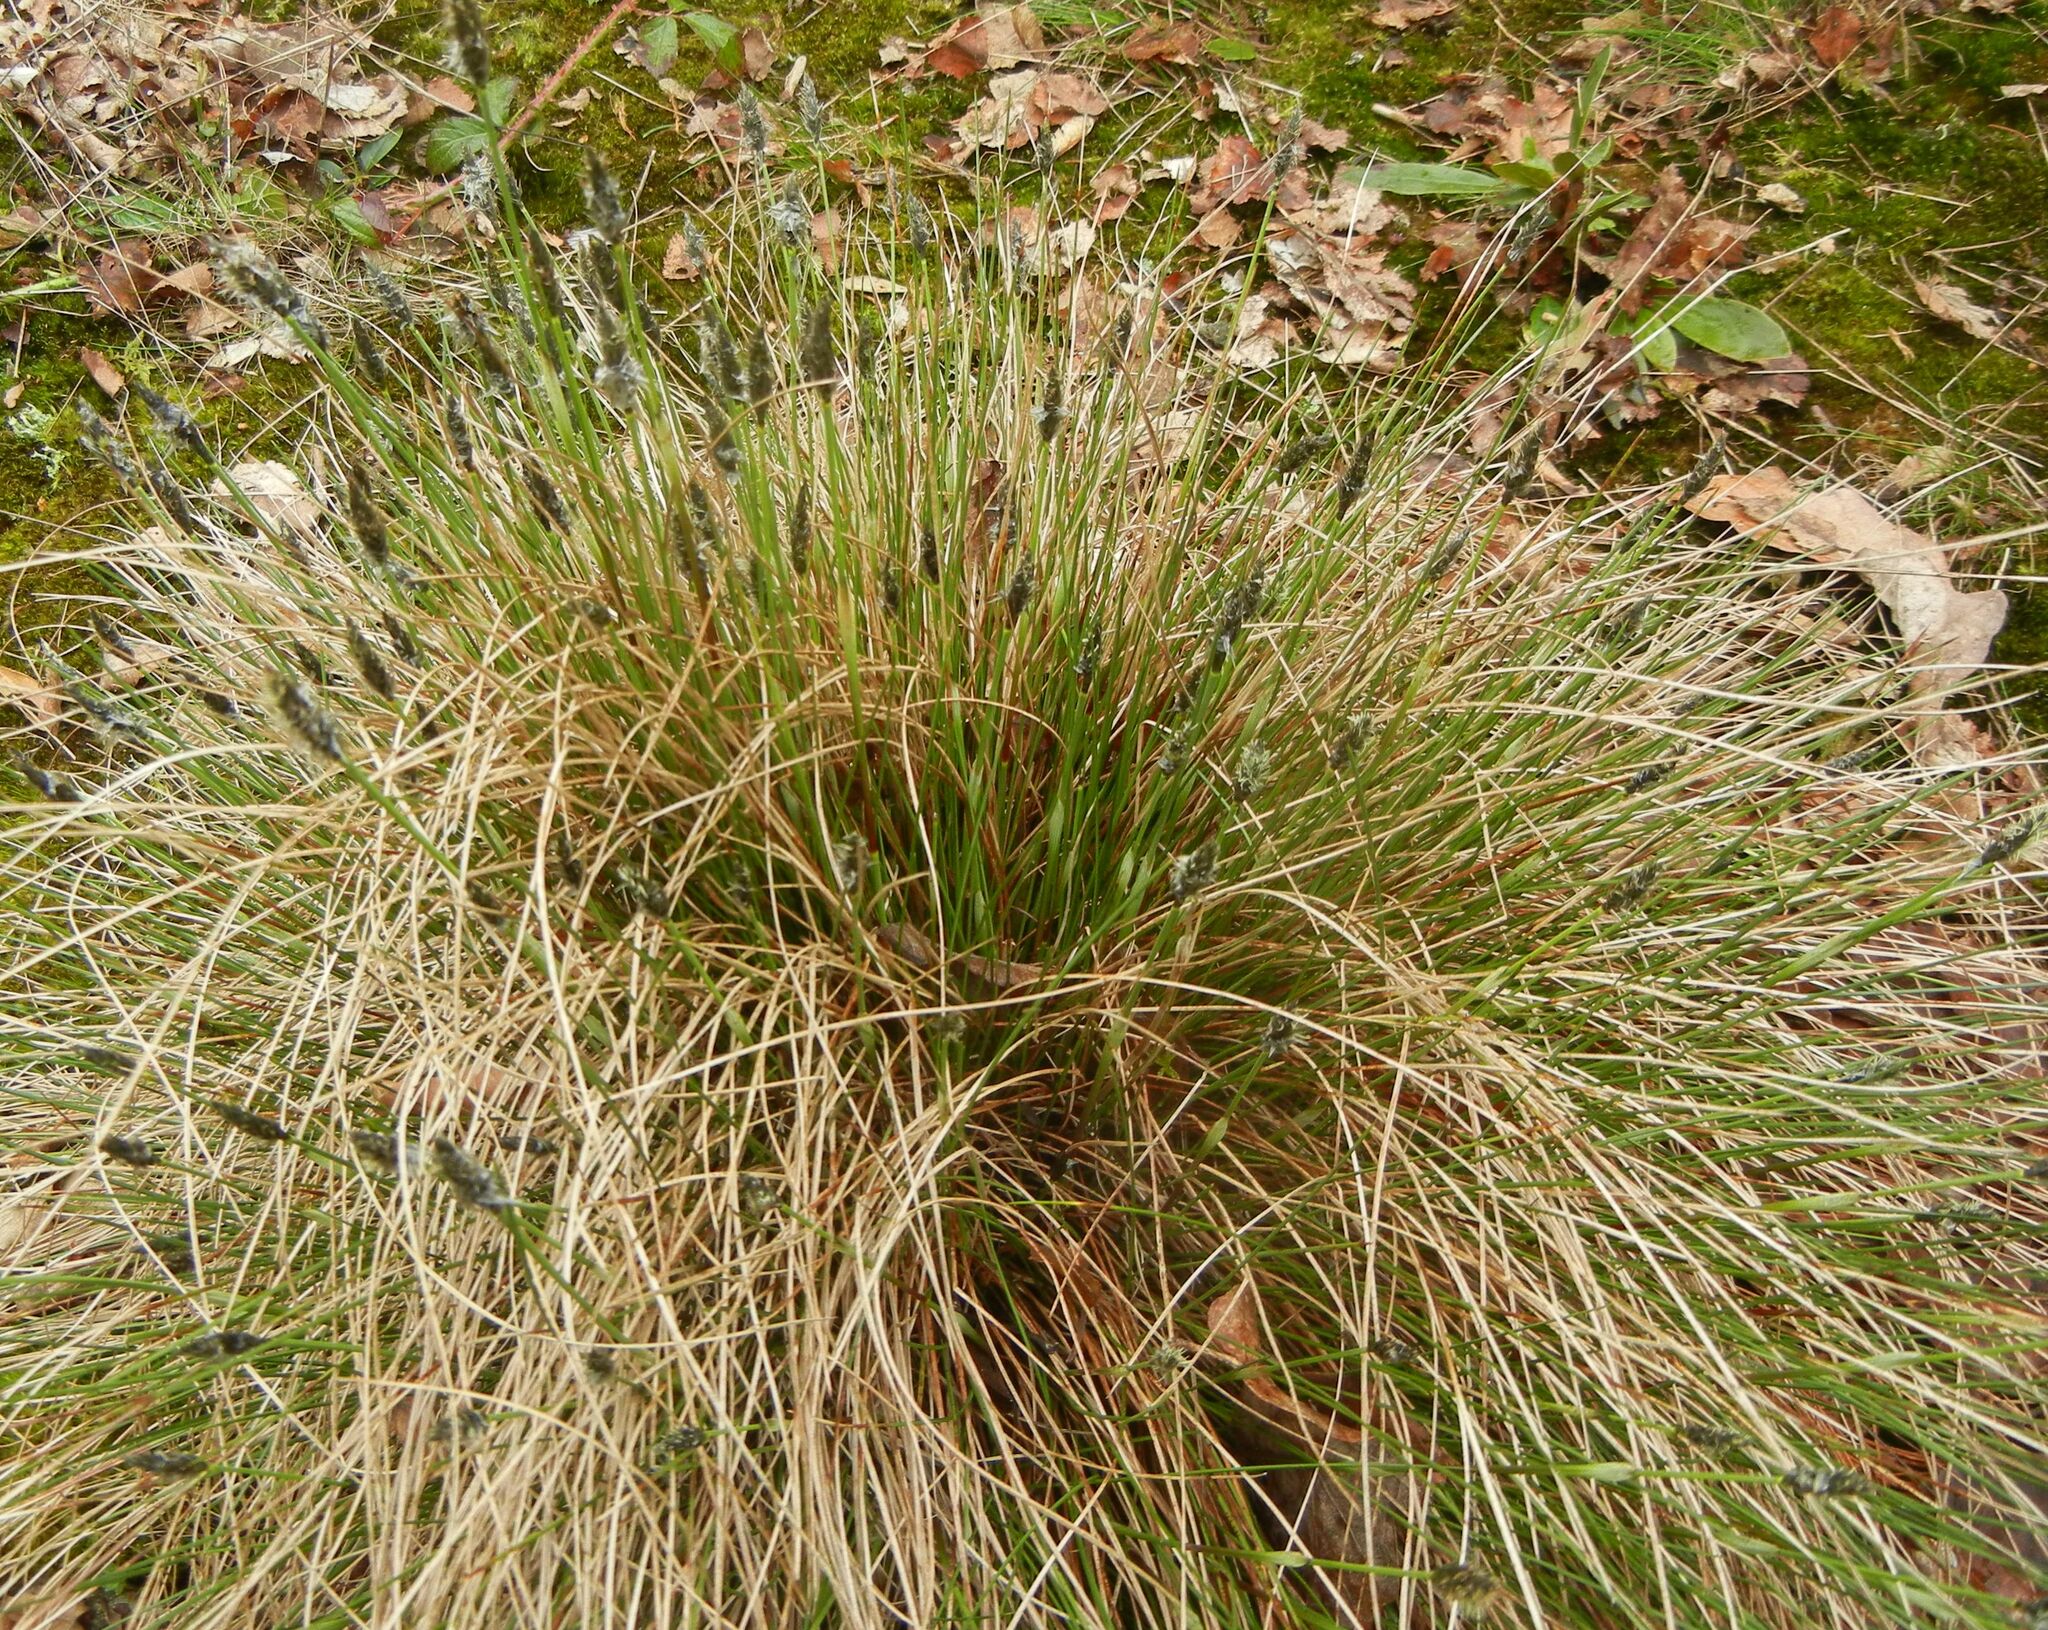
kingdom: Plantae
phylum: Tracheophyta
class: Liliopsida
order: Poales
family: Cyperaceae
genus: Carex
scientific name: Carex paniculata
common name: Greater tussock-sedge
